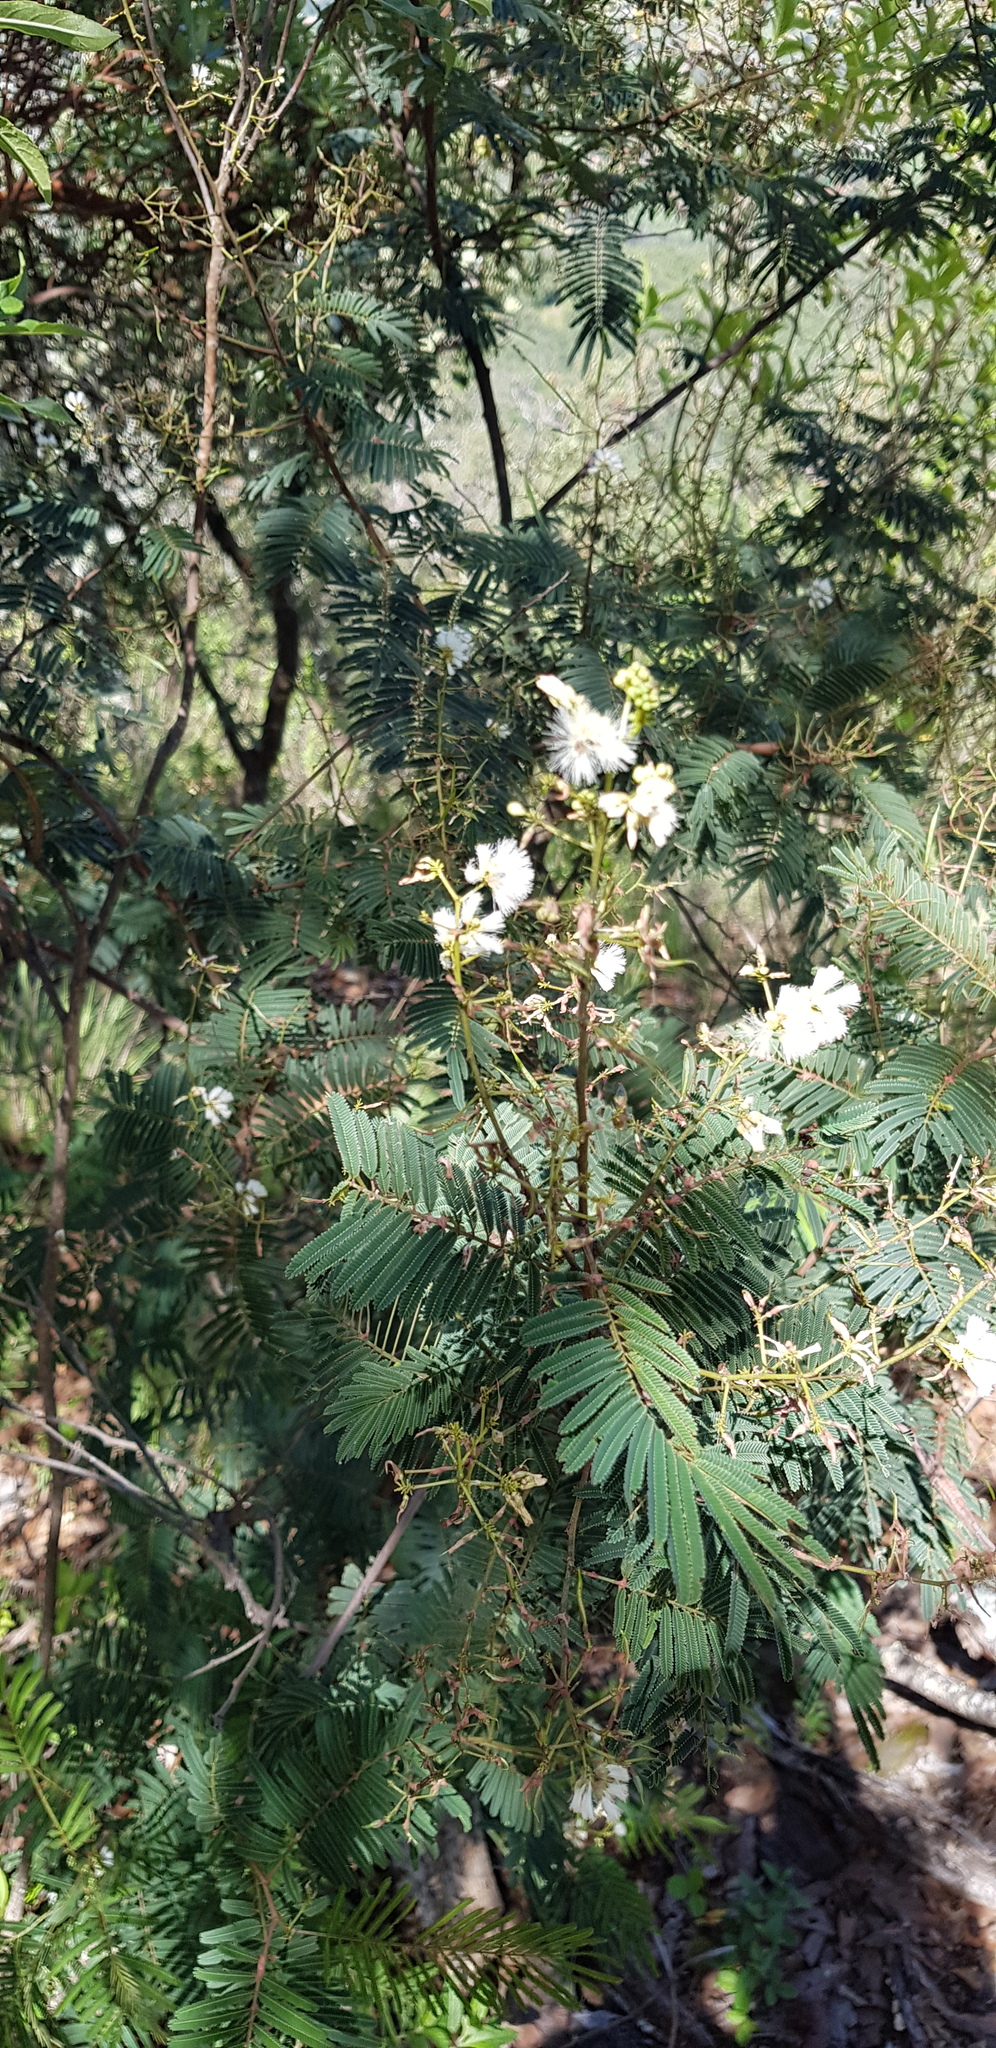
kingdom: Plantae
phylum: Tracheophyta
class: Magnoliopsida
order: Fabales
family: Fabaceae
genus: Acaciella
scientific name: Acaciella angustissima
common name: Prairie acacia
